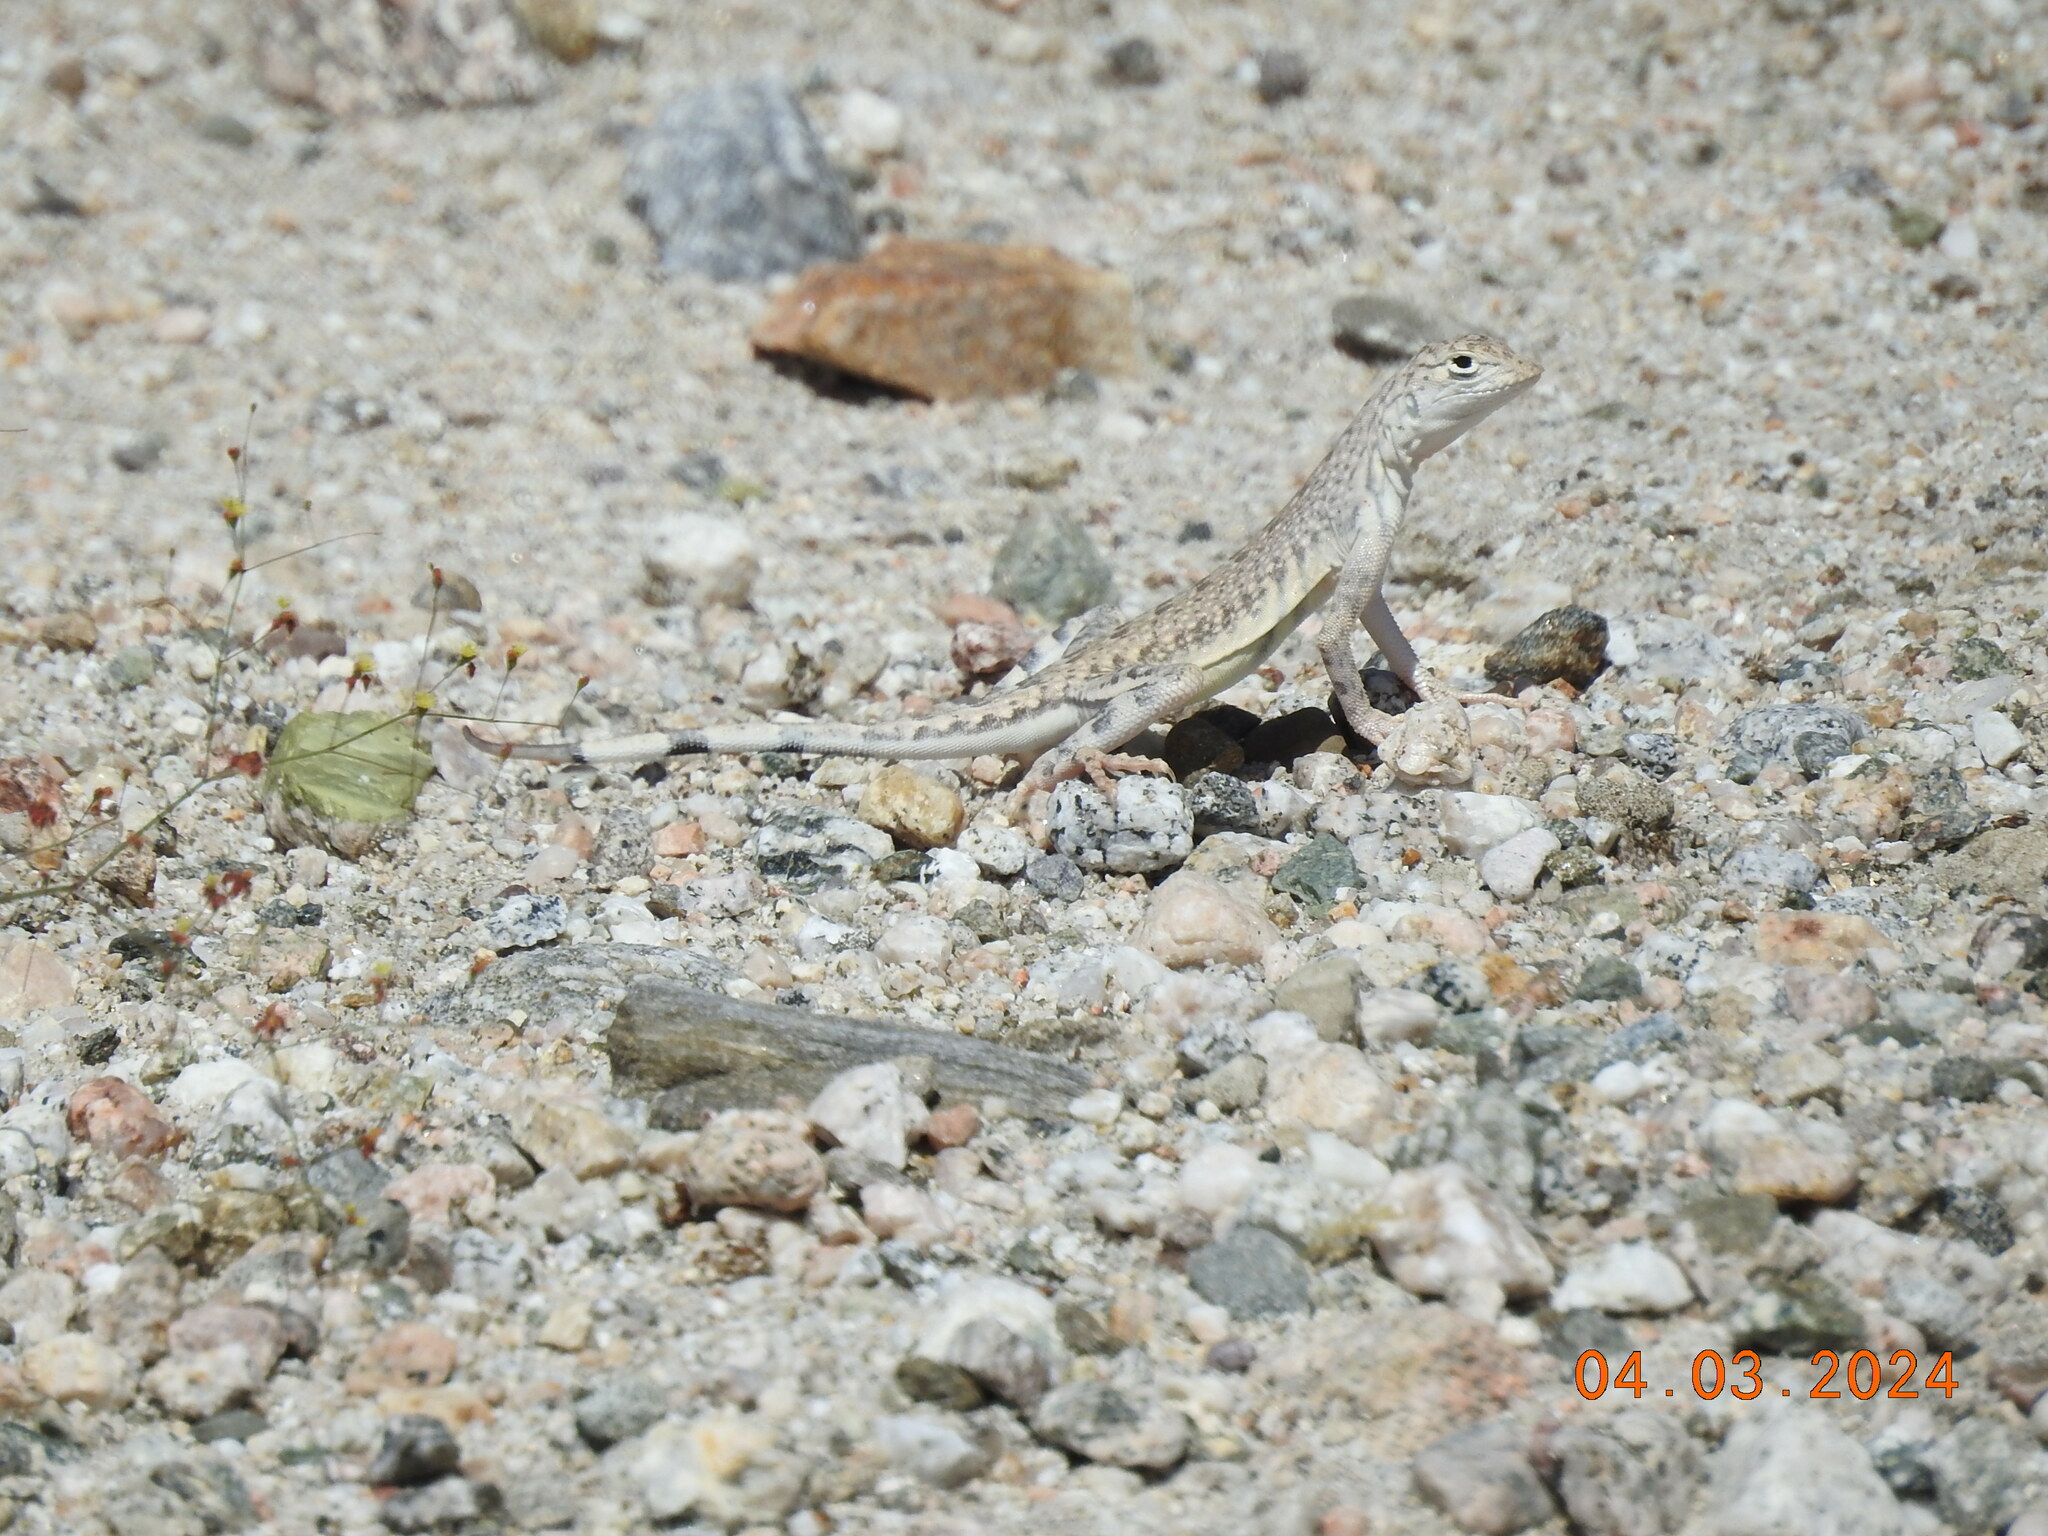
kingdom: Animalia
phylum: Chordata
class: Squamata
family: Phrynosomatidae
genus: Callisaurus
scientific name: Callisaurus draconoides
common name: Zebra-tailed lizard
